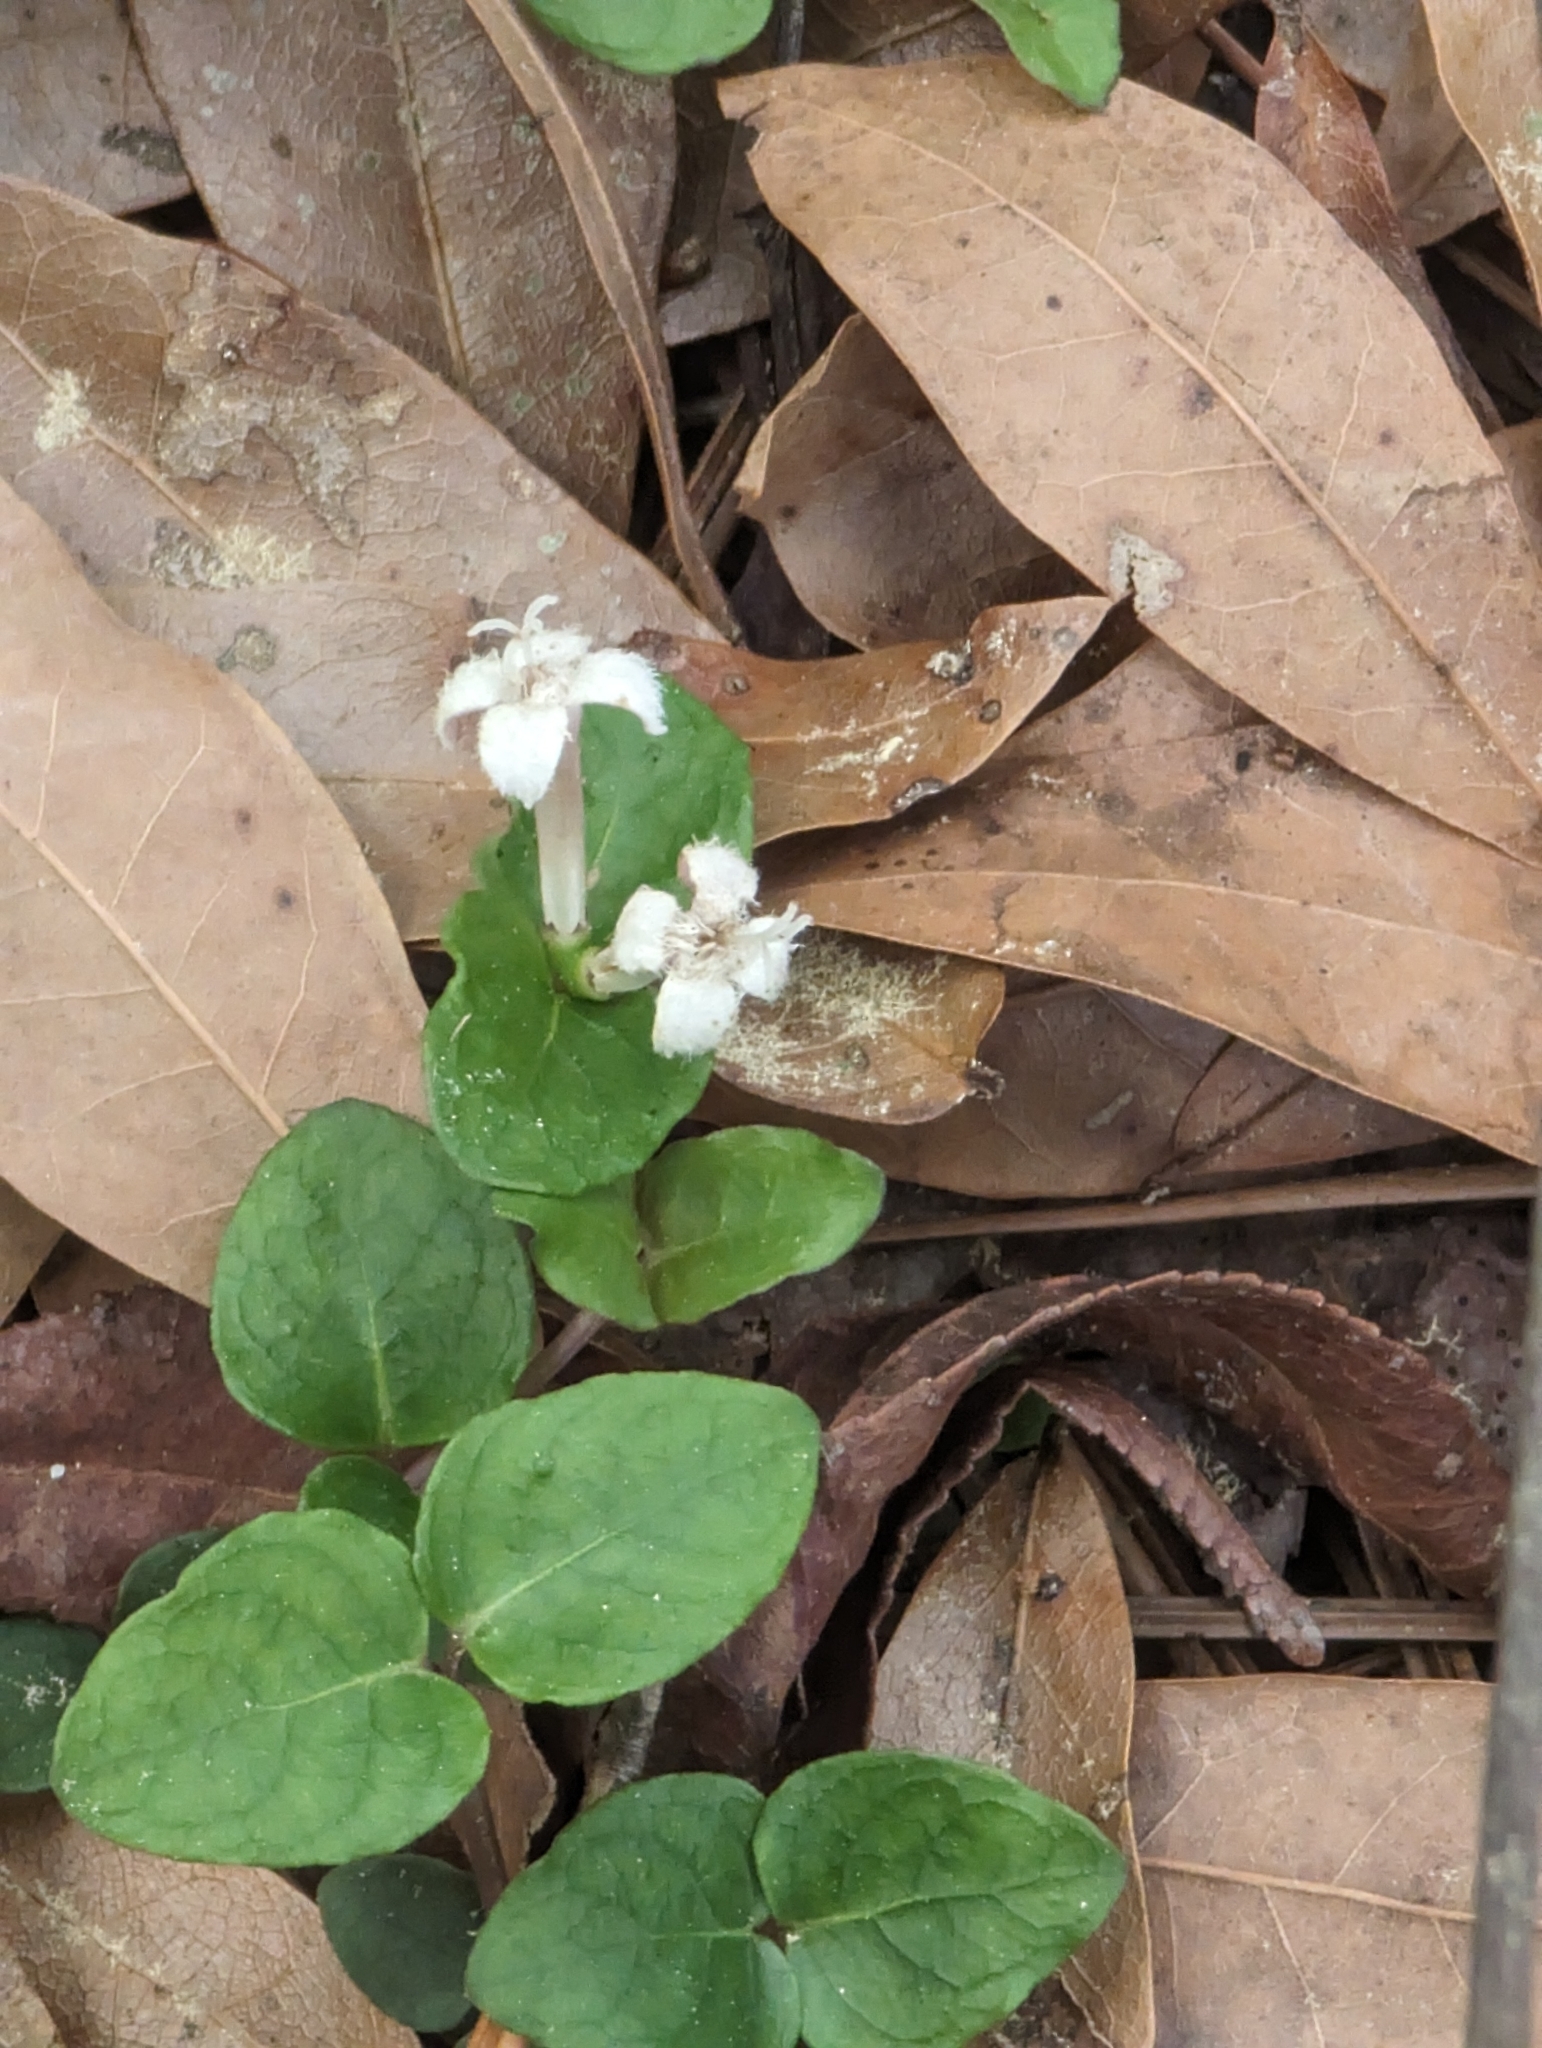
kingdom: Plantae
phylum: Tracheophyta
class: Magnoliopsida
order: Gentianales
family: Rubiaceae
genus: Mitchella
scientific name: Mitchella repens
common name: Partridge-berry
